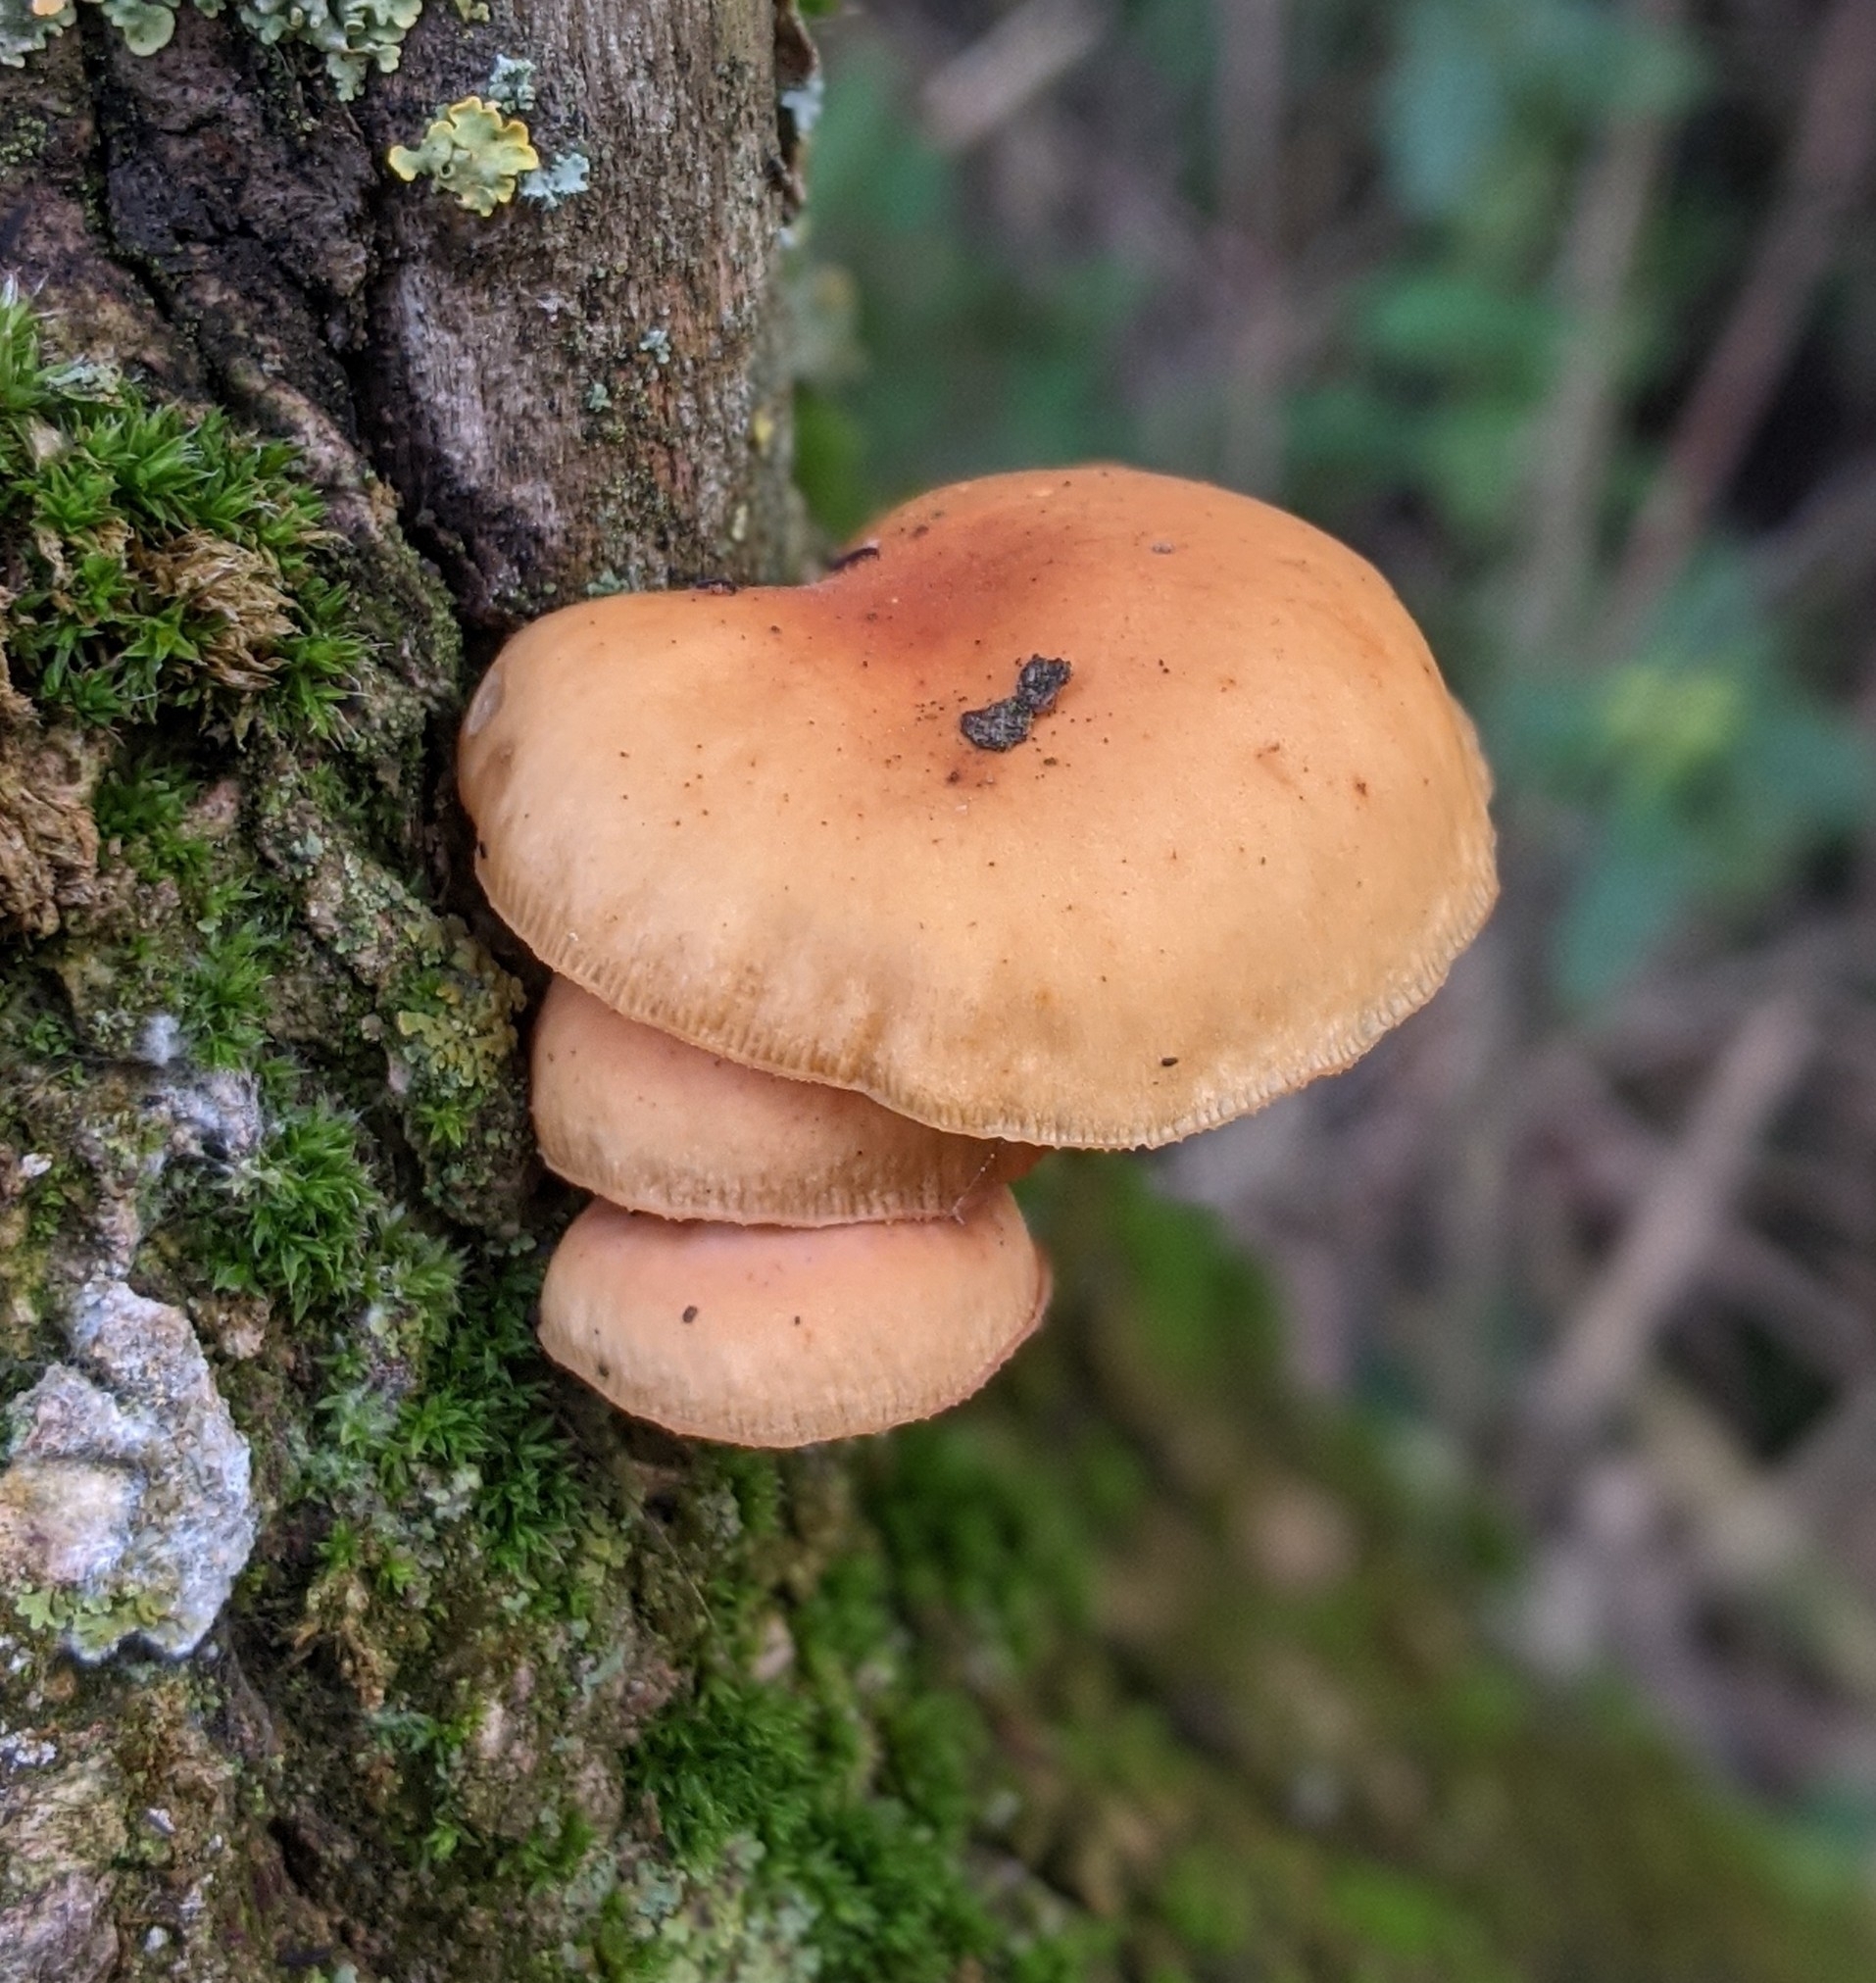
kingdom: Fungi
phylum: Basidiomycota
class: Agaricomycetes
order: Agaricales
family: Physalacriaceae
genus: Flammulina
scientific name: Flammulina
